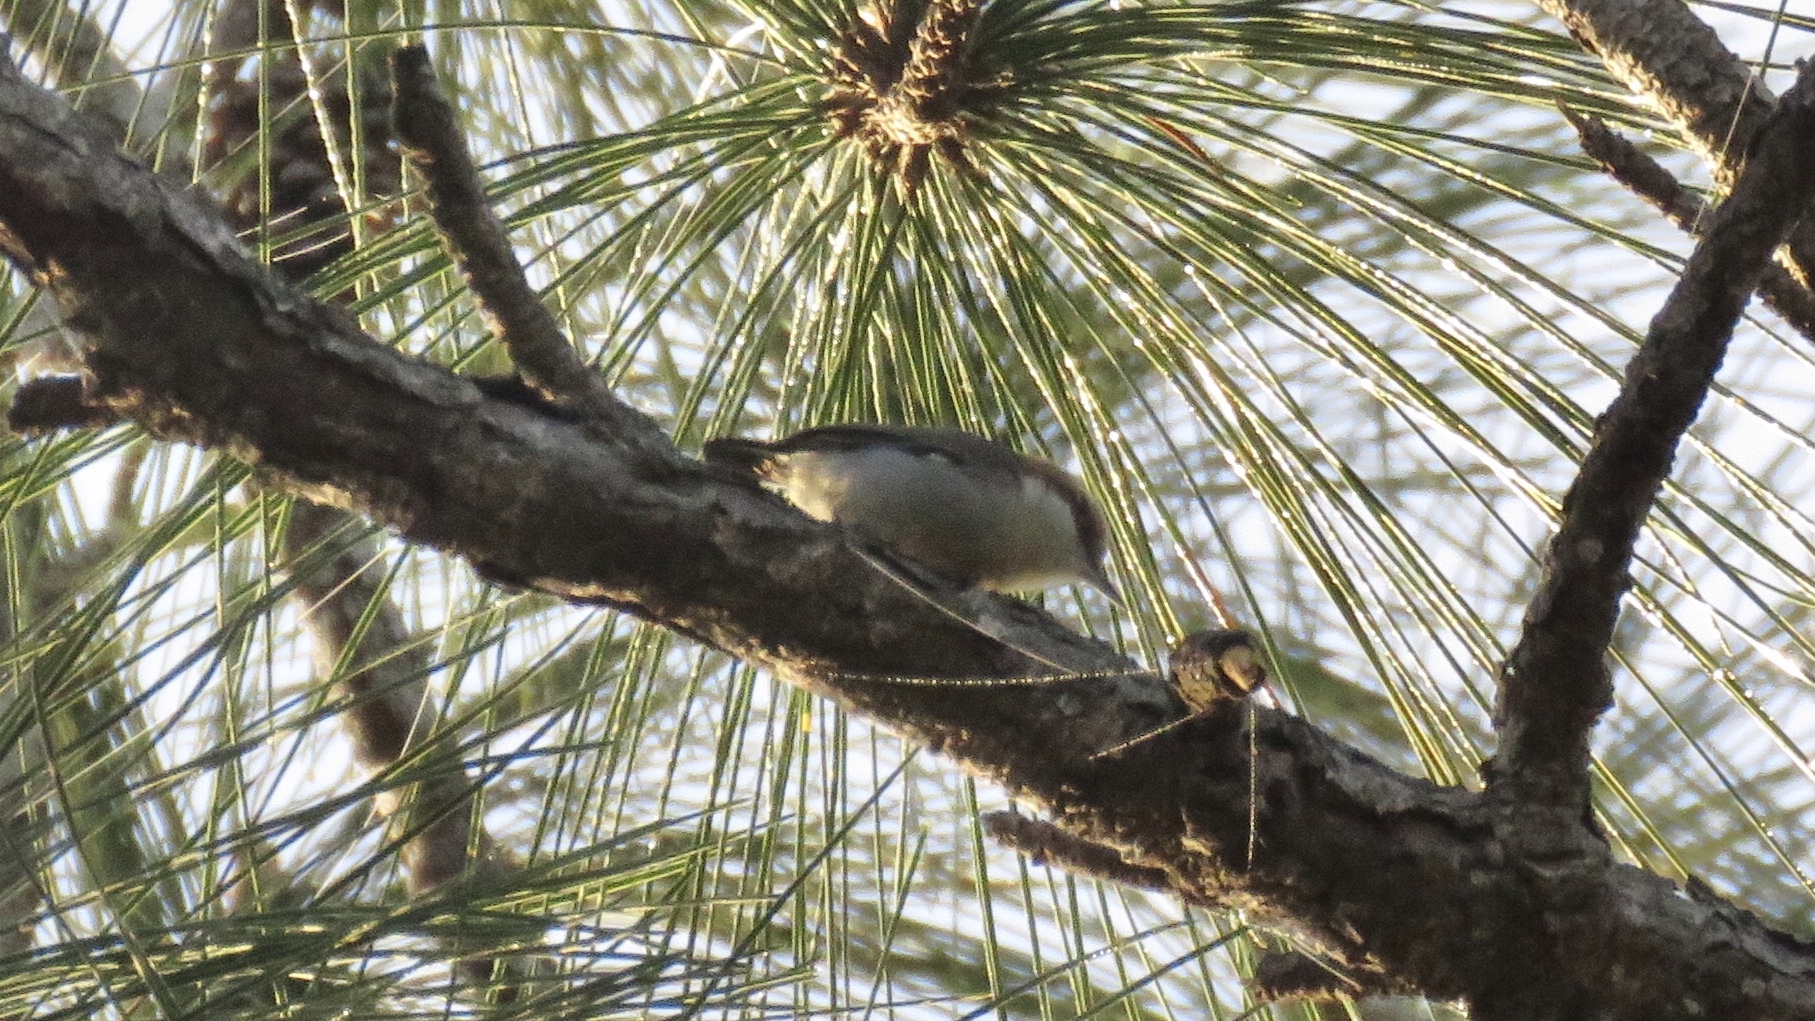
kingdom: Animalia
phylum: Chordata
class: Aves
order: Passeriformes
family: Sittidae
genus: Sitta
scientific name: Sitta pusilla
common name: Brown-headed nuthatch
